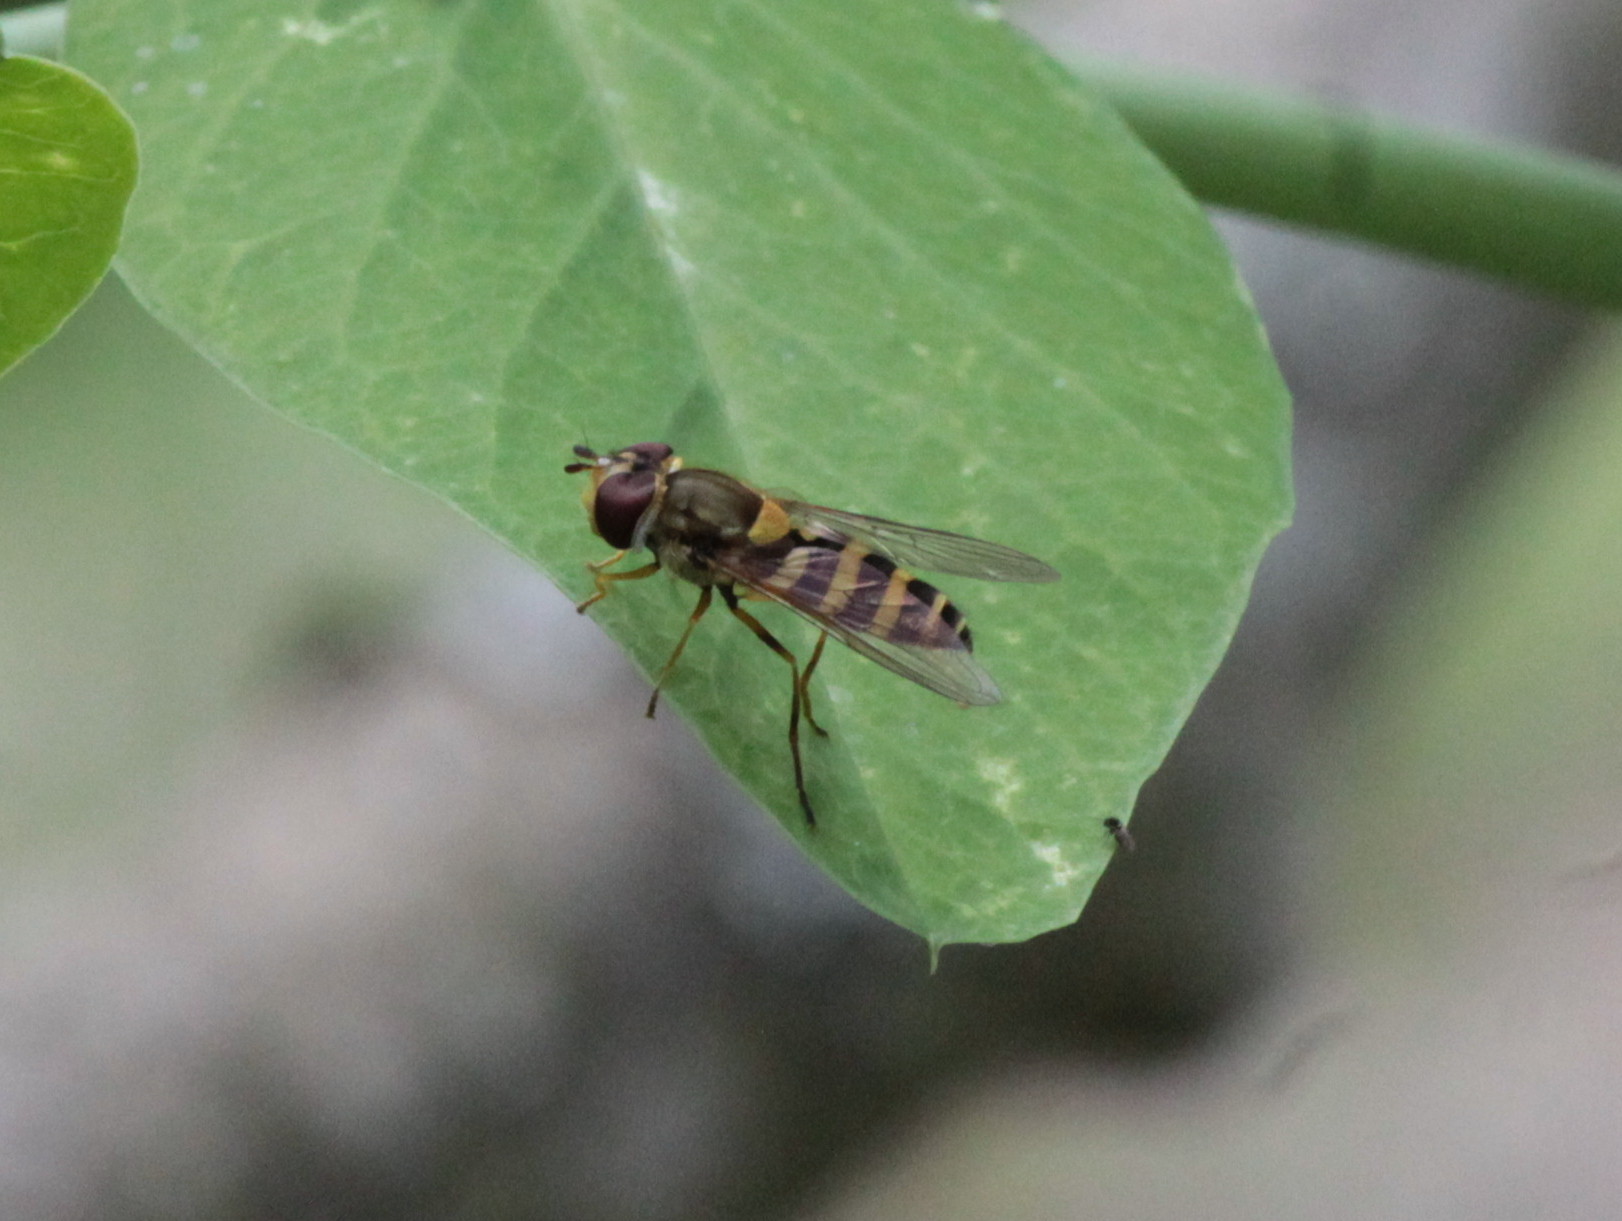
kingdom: Animalia
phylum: Arthropoda
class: Insecta
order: Diptera
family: Syrphidae
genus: Syrphus
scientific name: Syrphus rectus
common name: Yellow-legged flower fly
